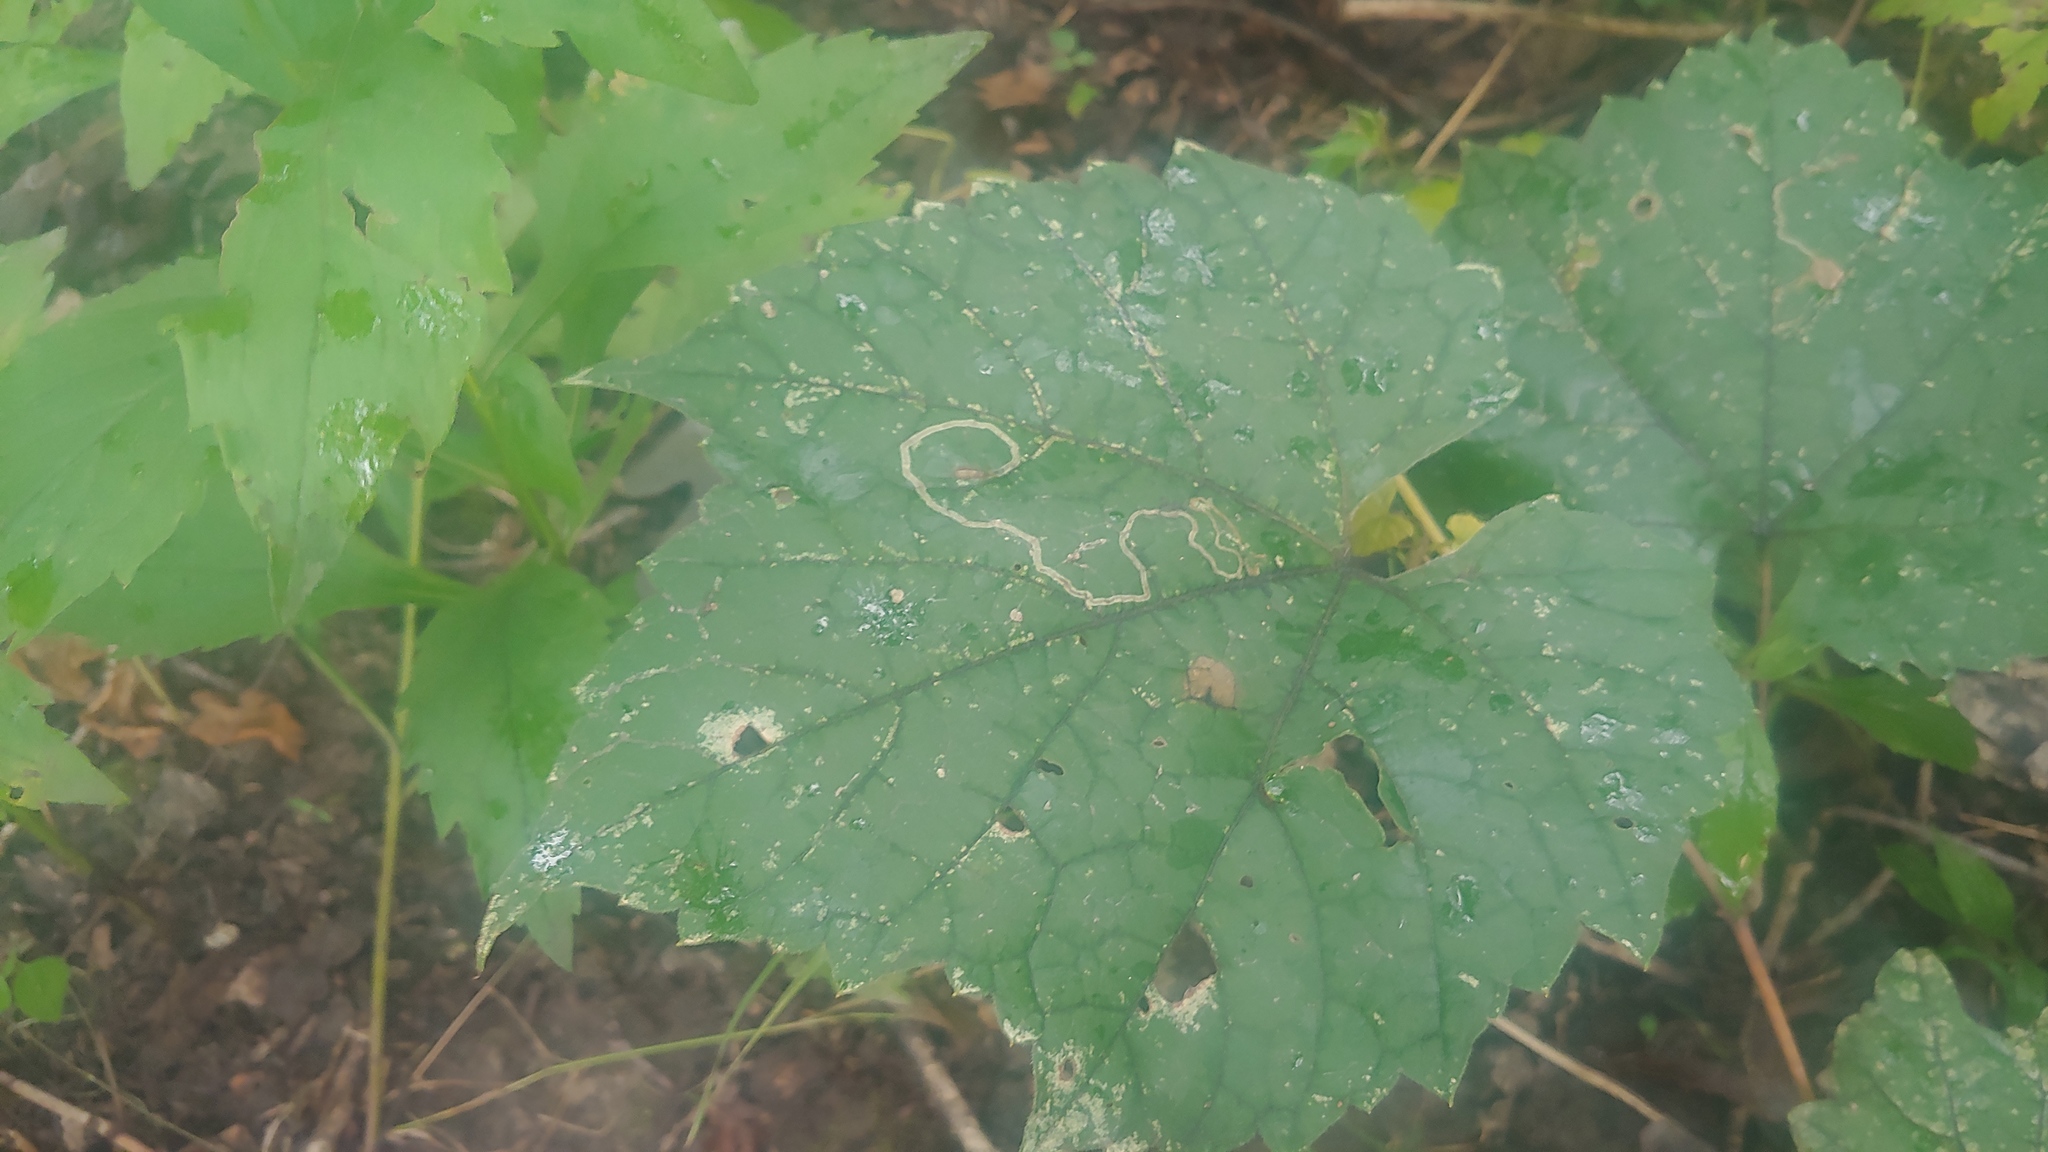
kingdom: Animalia
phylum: Arthropoda
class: Insecta
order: Lepidoptera
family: Gracillariidae
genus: Phyllocnistis
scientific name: Phyllocnistis vitifoliella
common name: Grape leaf-miner moth
